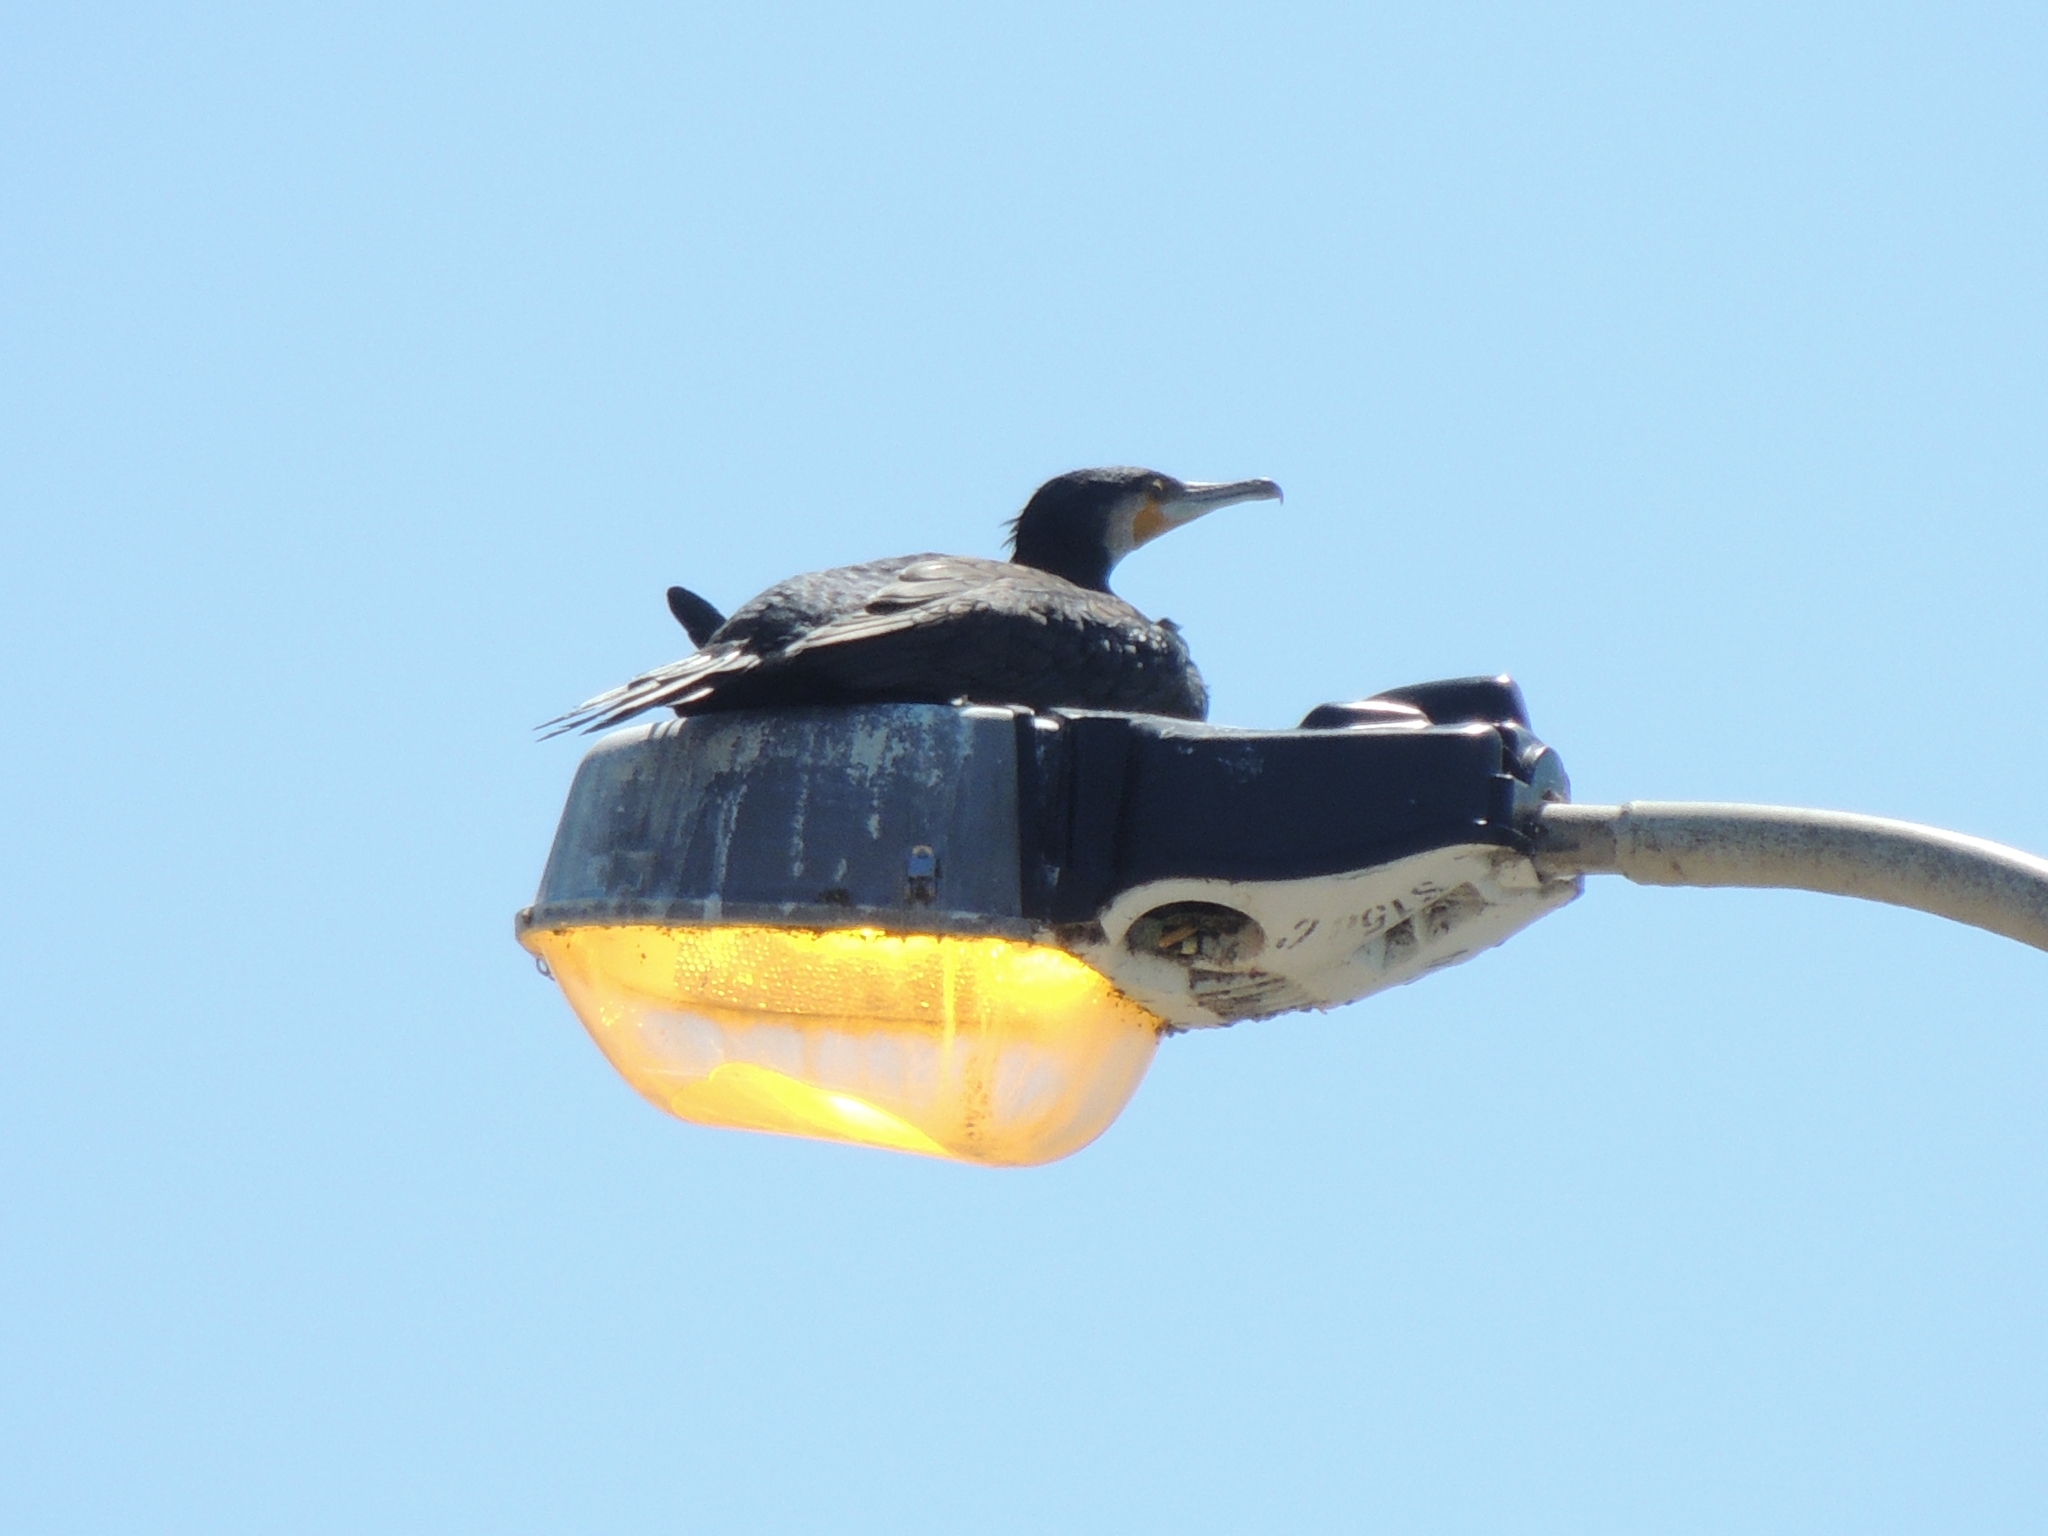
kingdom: Animalia
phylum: Chordata
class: Aves
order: Suliformes
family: Phalacrocoracidae
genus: Phalacrocorax
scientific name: Phalacrocorax carbo
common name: Great cormorant
